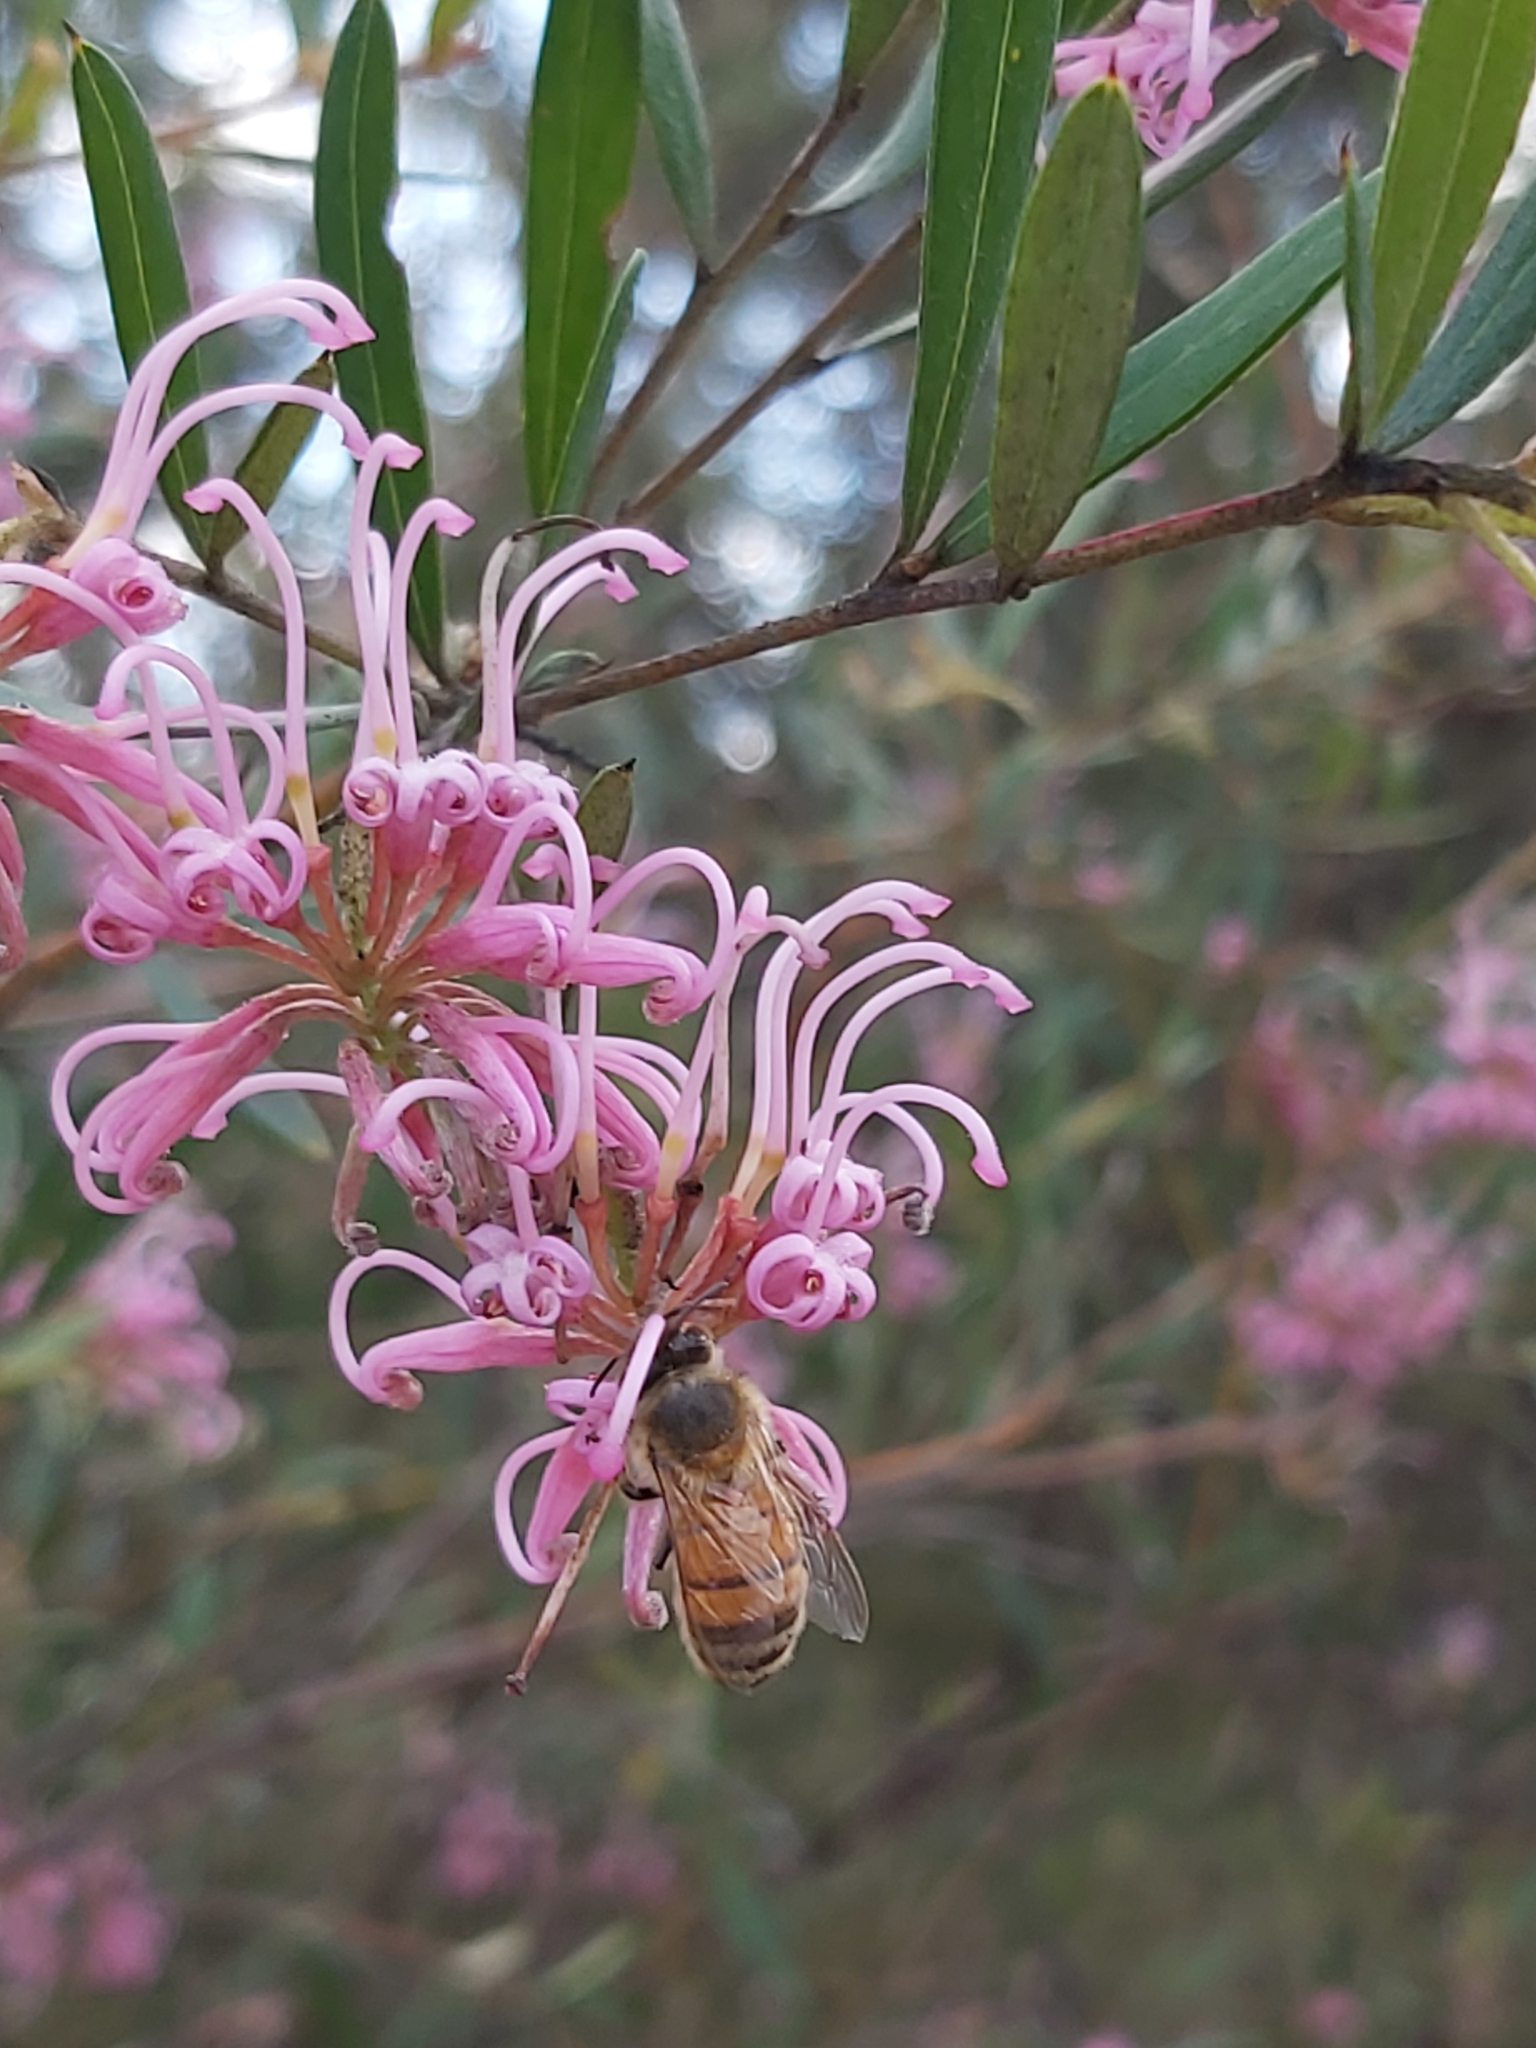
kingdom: Animalia
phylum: Arthropoda
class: Insecta
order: Hymenoptera
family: Apidae
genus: Apis
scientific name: Apis mellifera
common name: Honey bee
